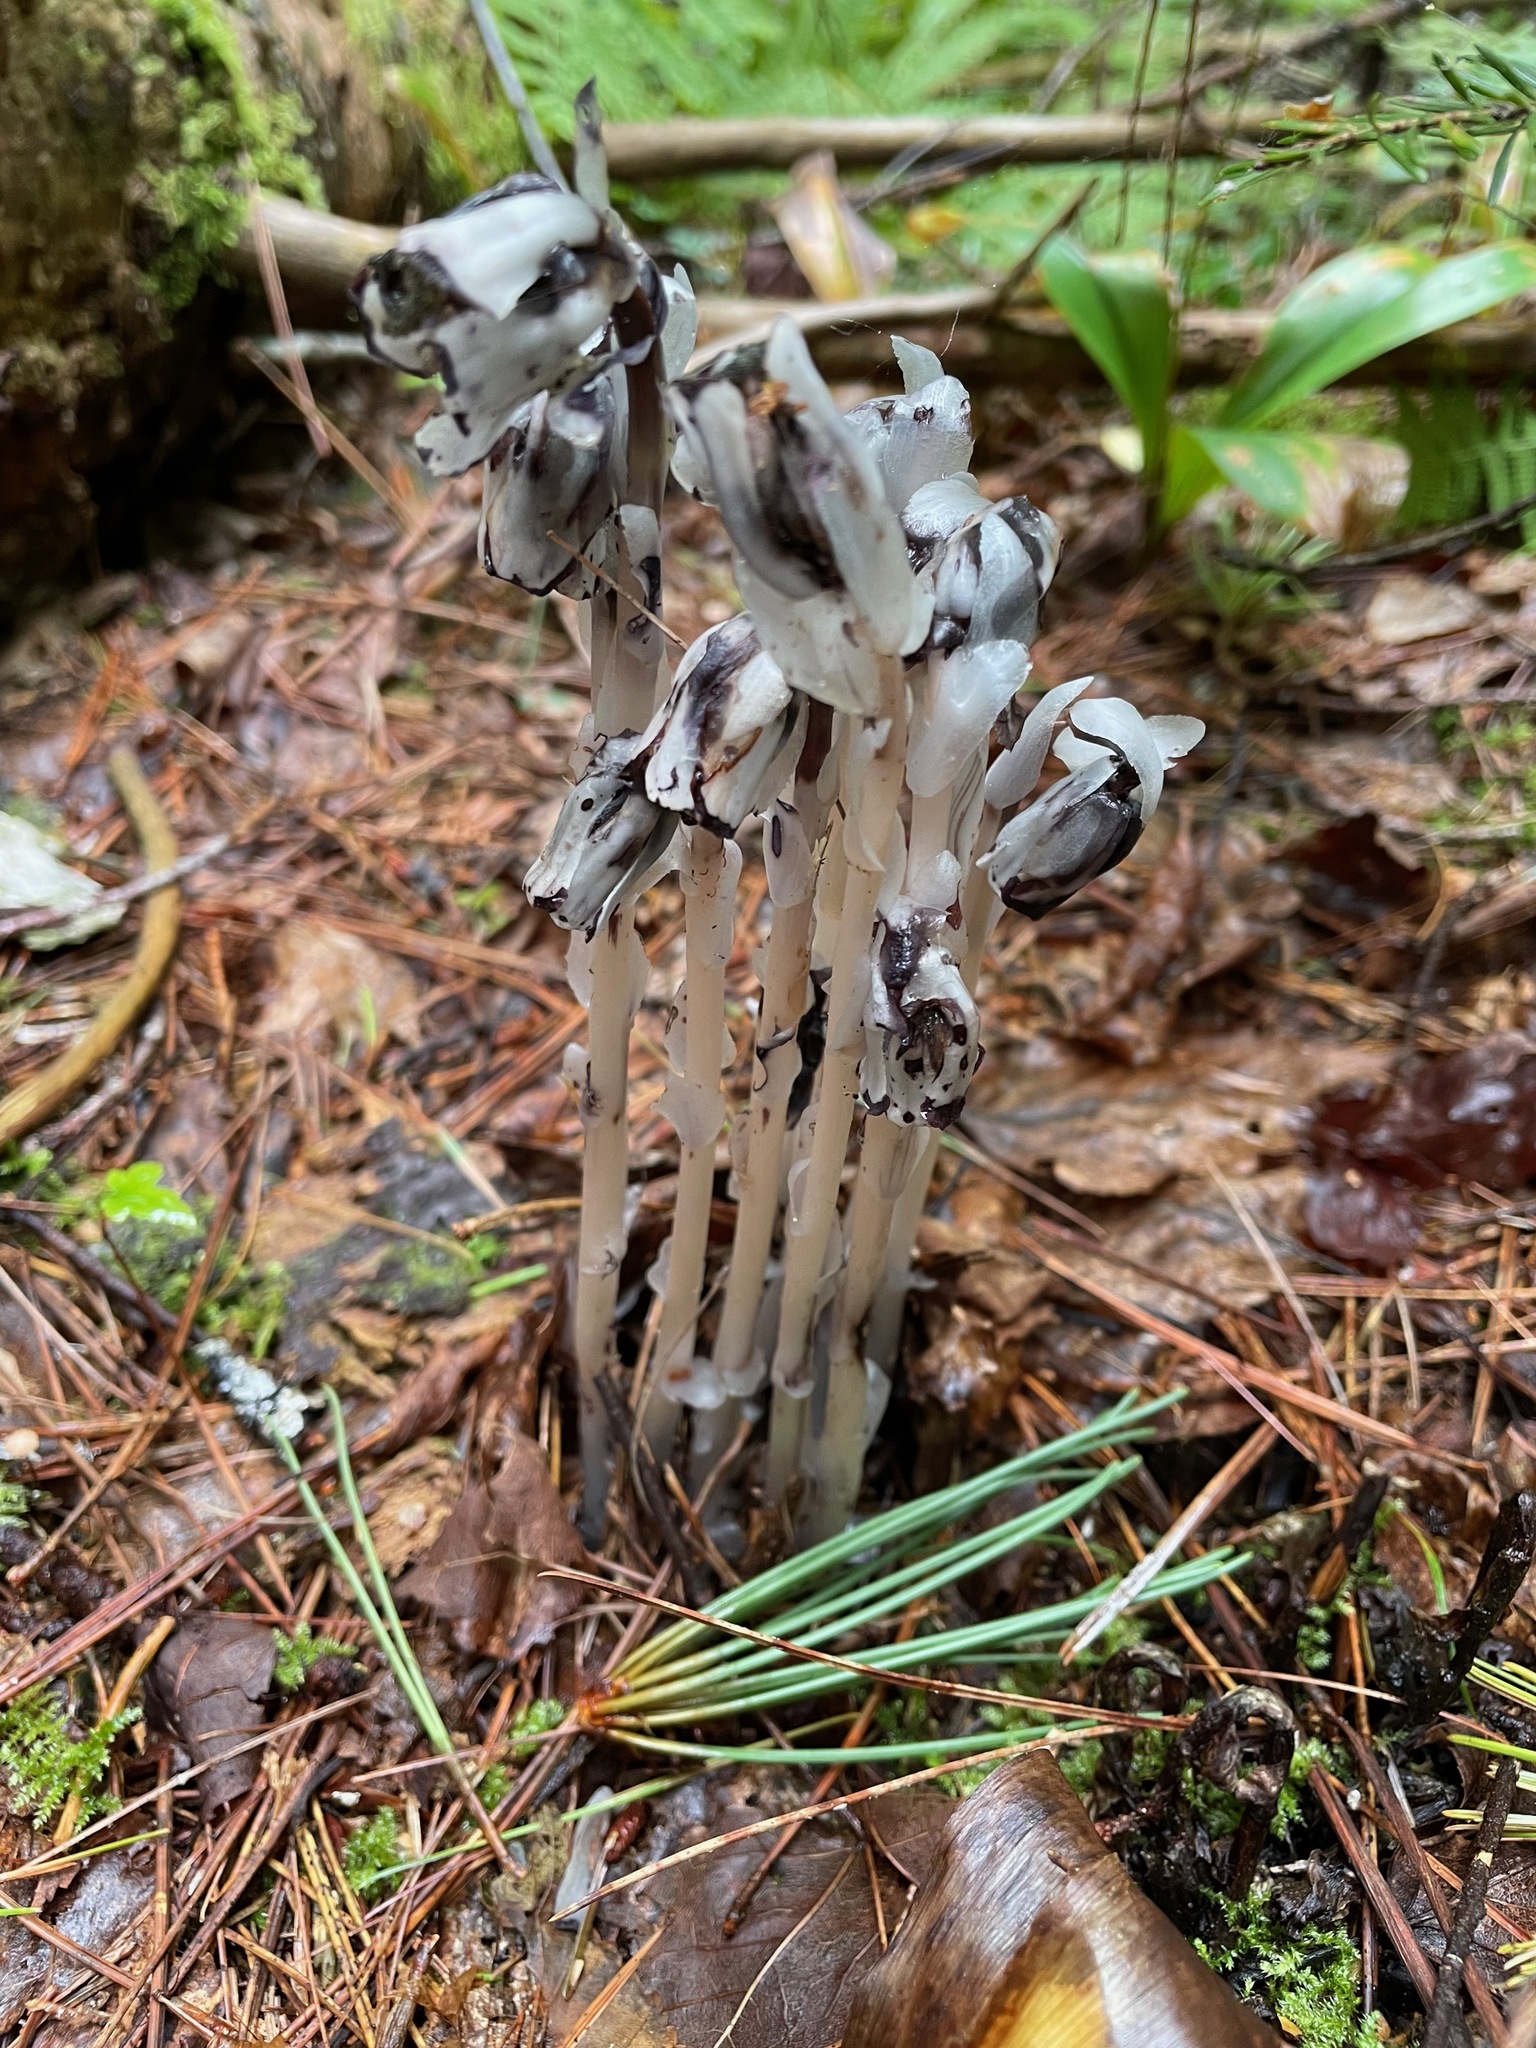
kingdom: Plantae
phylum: Tracheophyta
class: Magnoliopsida
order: Ericales
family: Ericaceae
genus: Monotropa
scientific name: Monotropa uniflora
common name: Convulsion root
